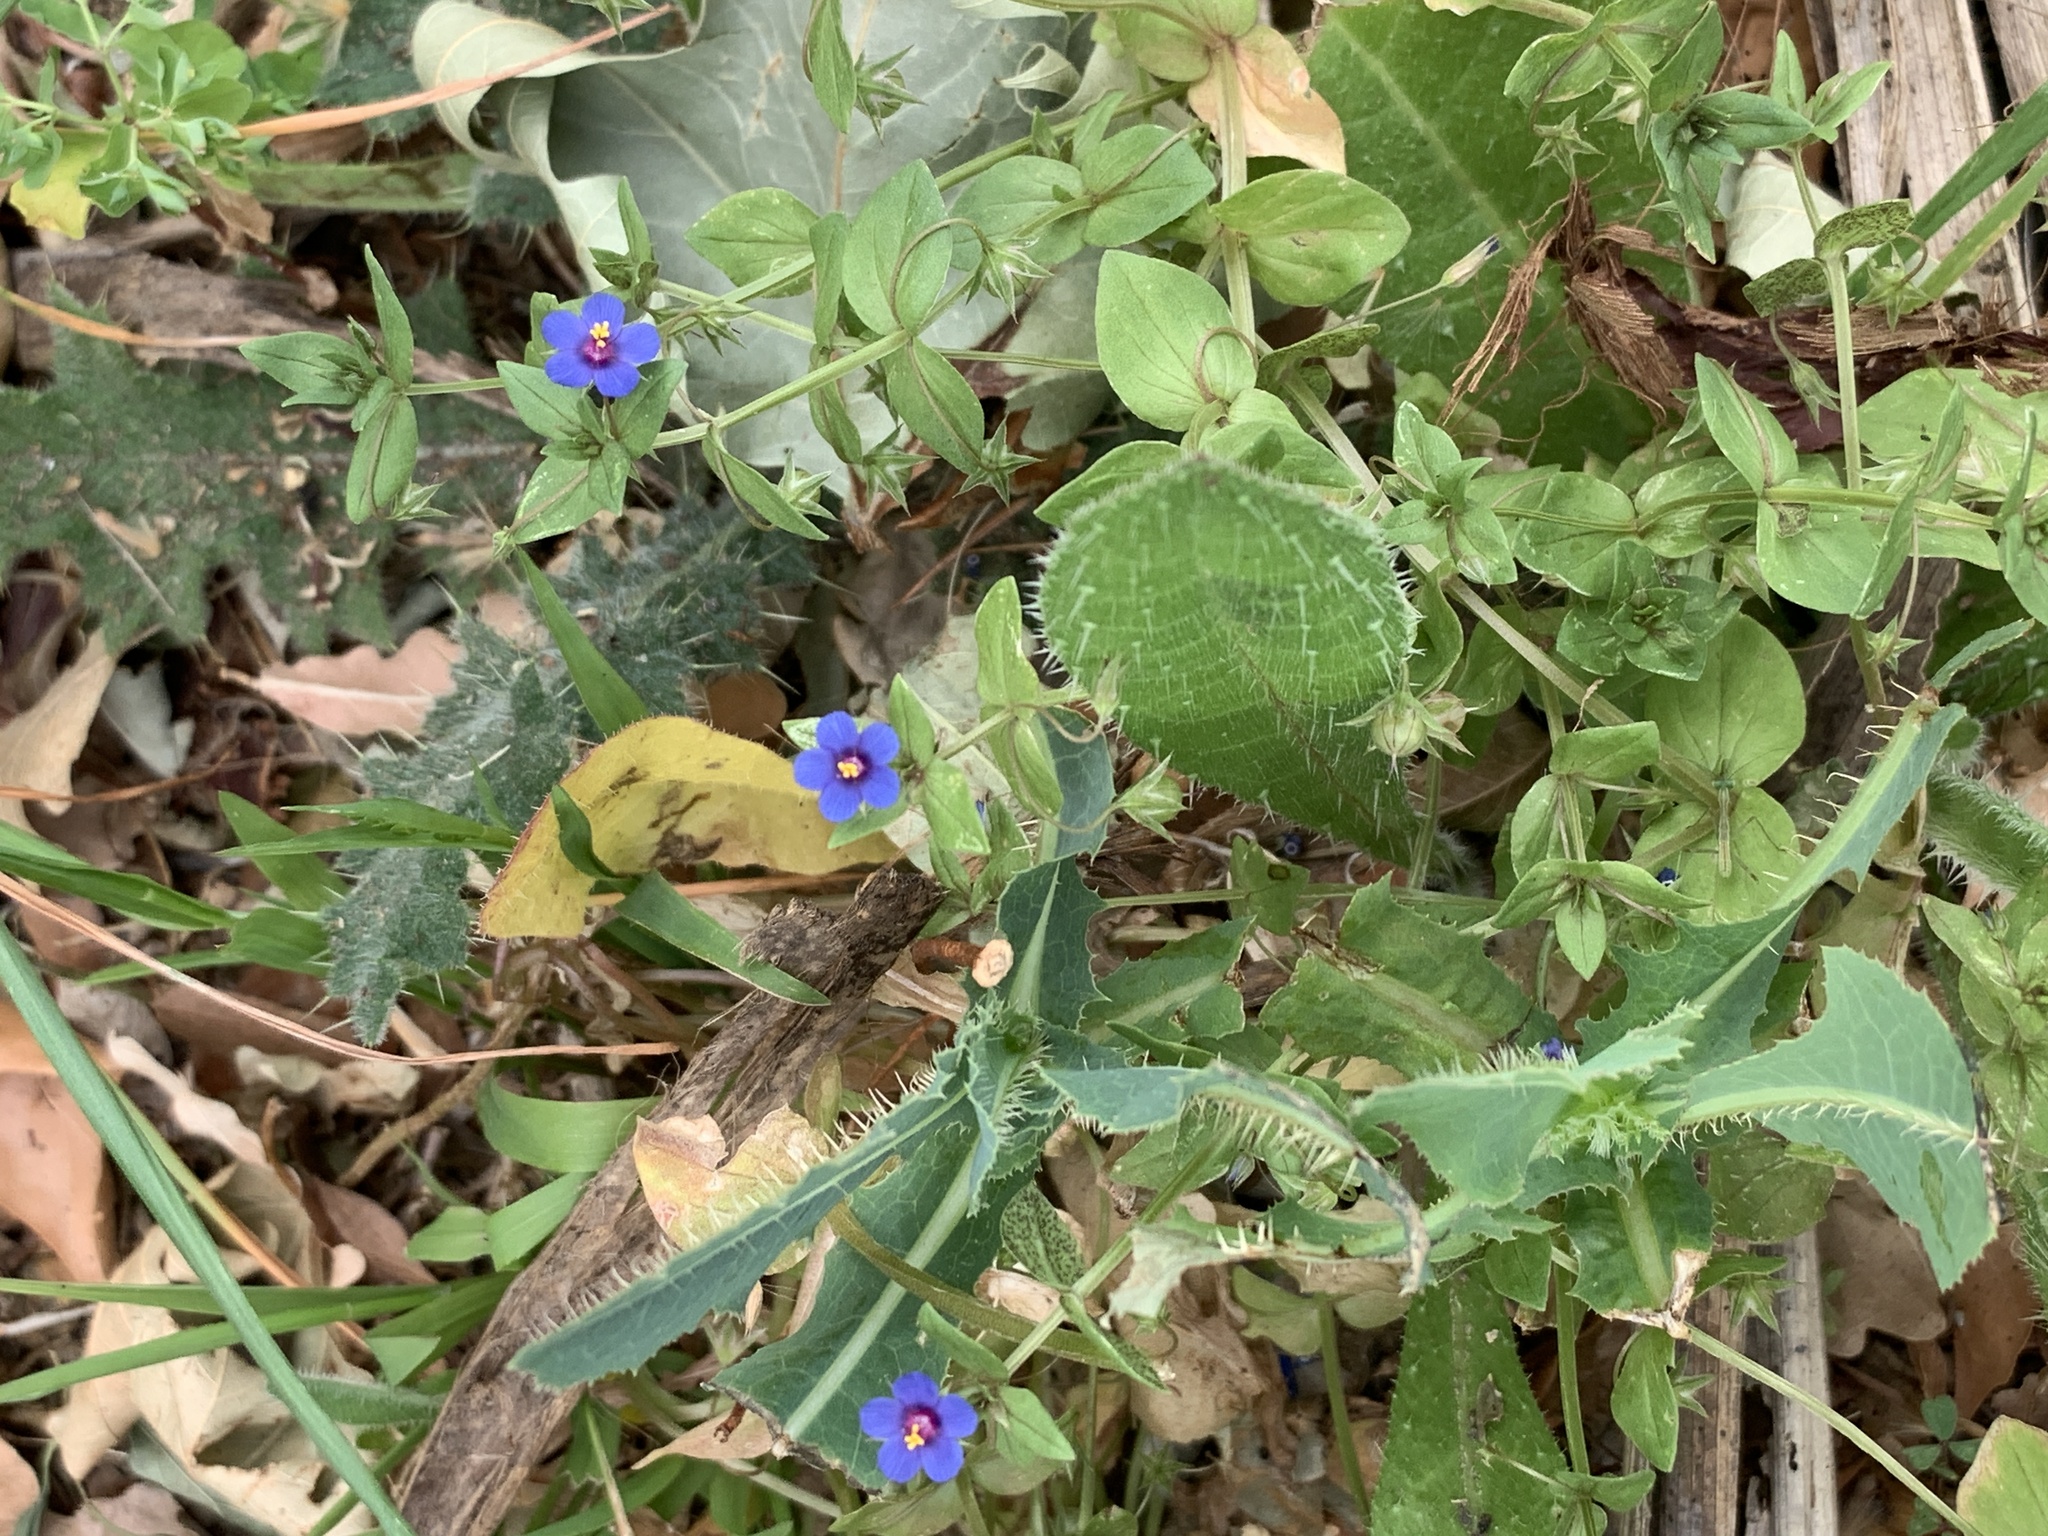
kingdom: Plantae
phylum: Tracheophyta
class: Magnoliopsida
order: Ericales
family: Primulaceae
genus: Lysimachia
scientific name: Lysimachia loeflingii
